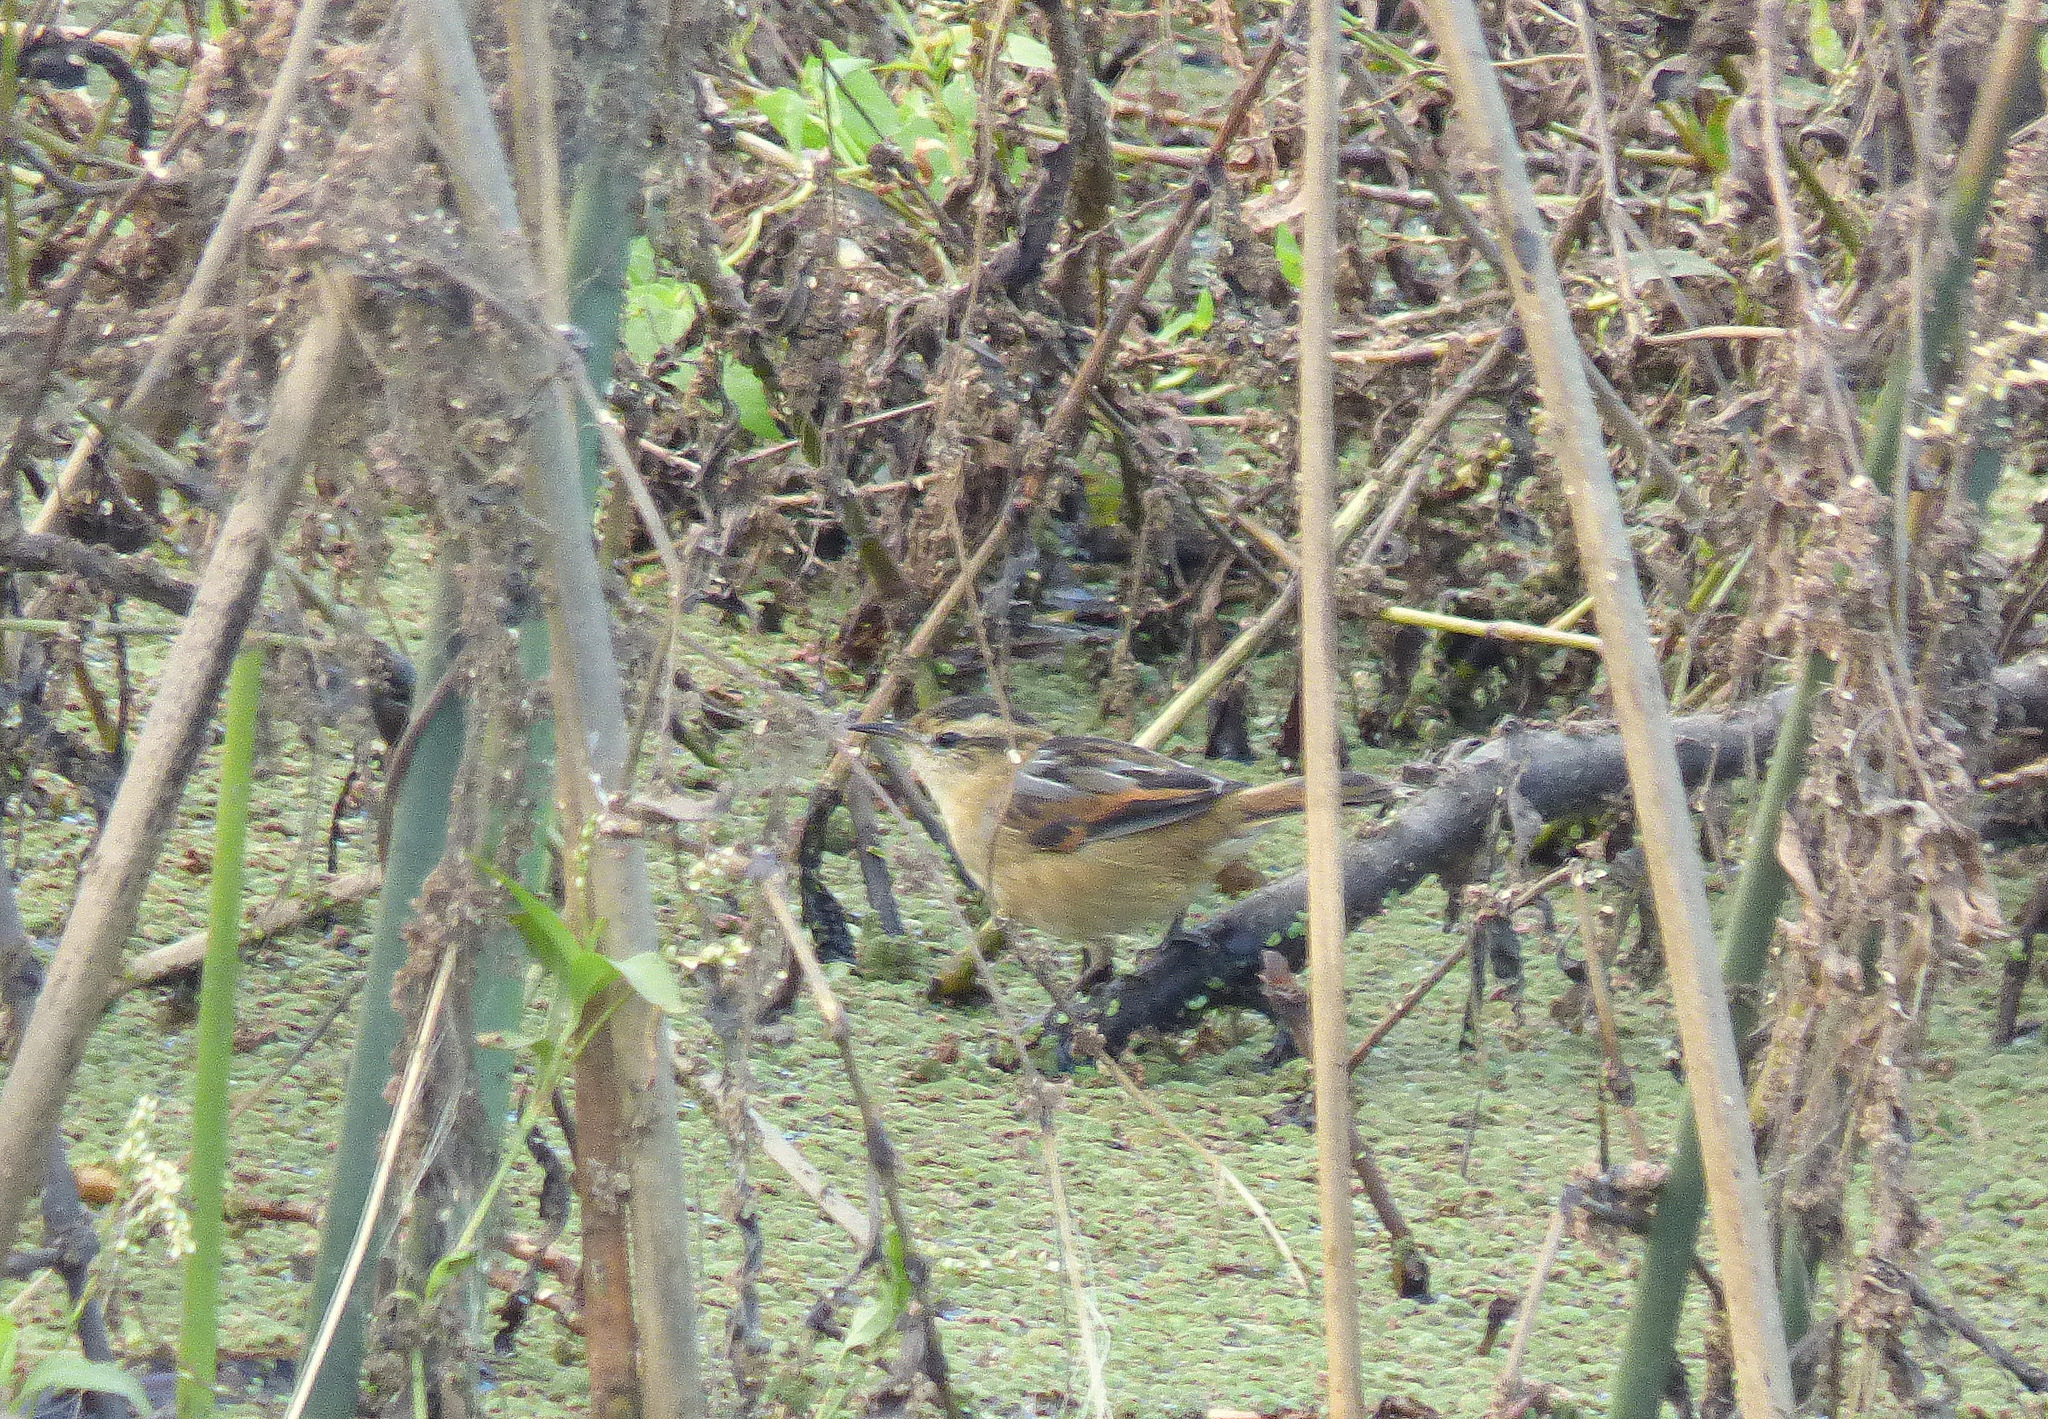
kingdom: Animalia
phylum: Chordata
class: Aves
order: Passeriformes
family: Furnariidae
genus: Phleocryptes
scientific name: Phleocryptes melanops
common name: Wren-like rushbird
